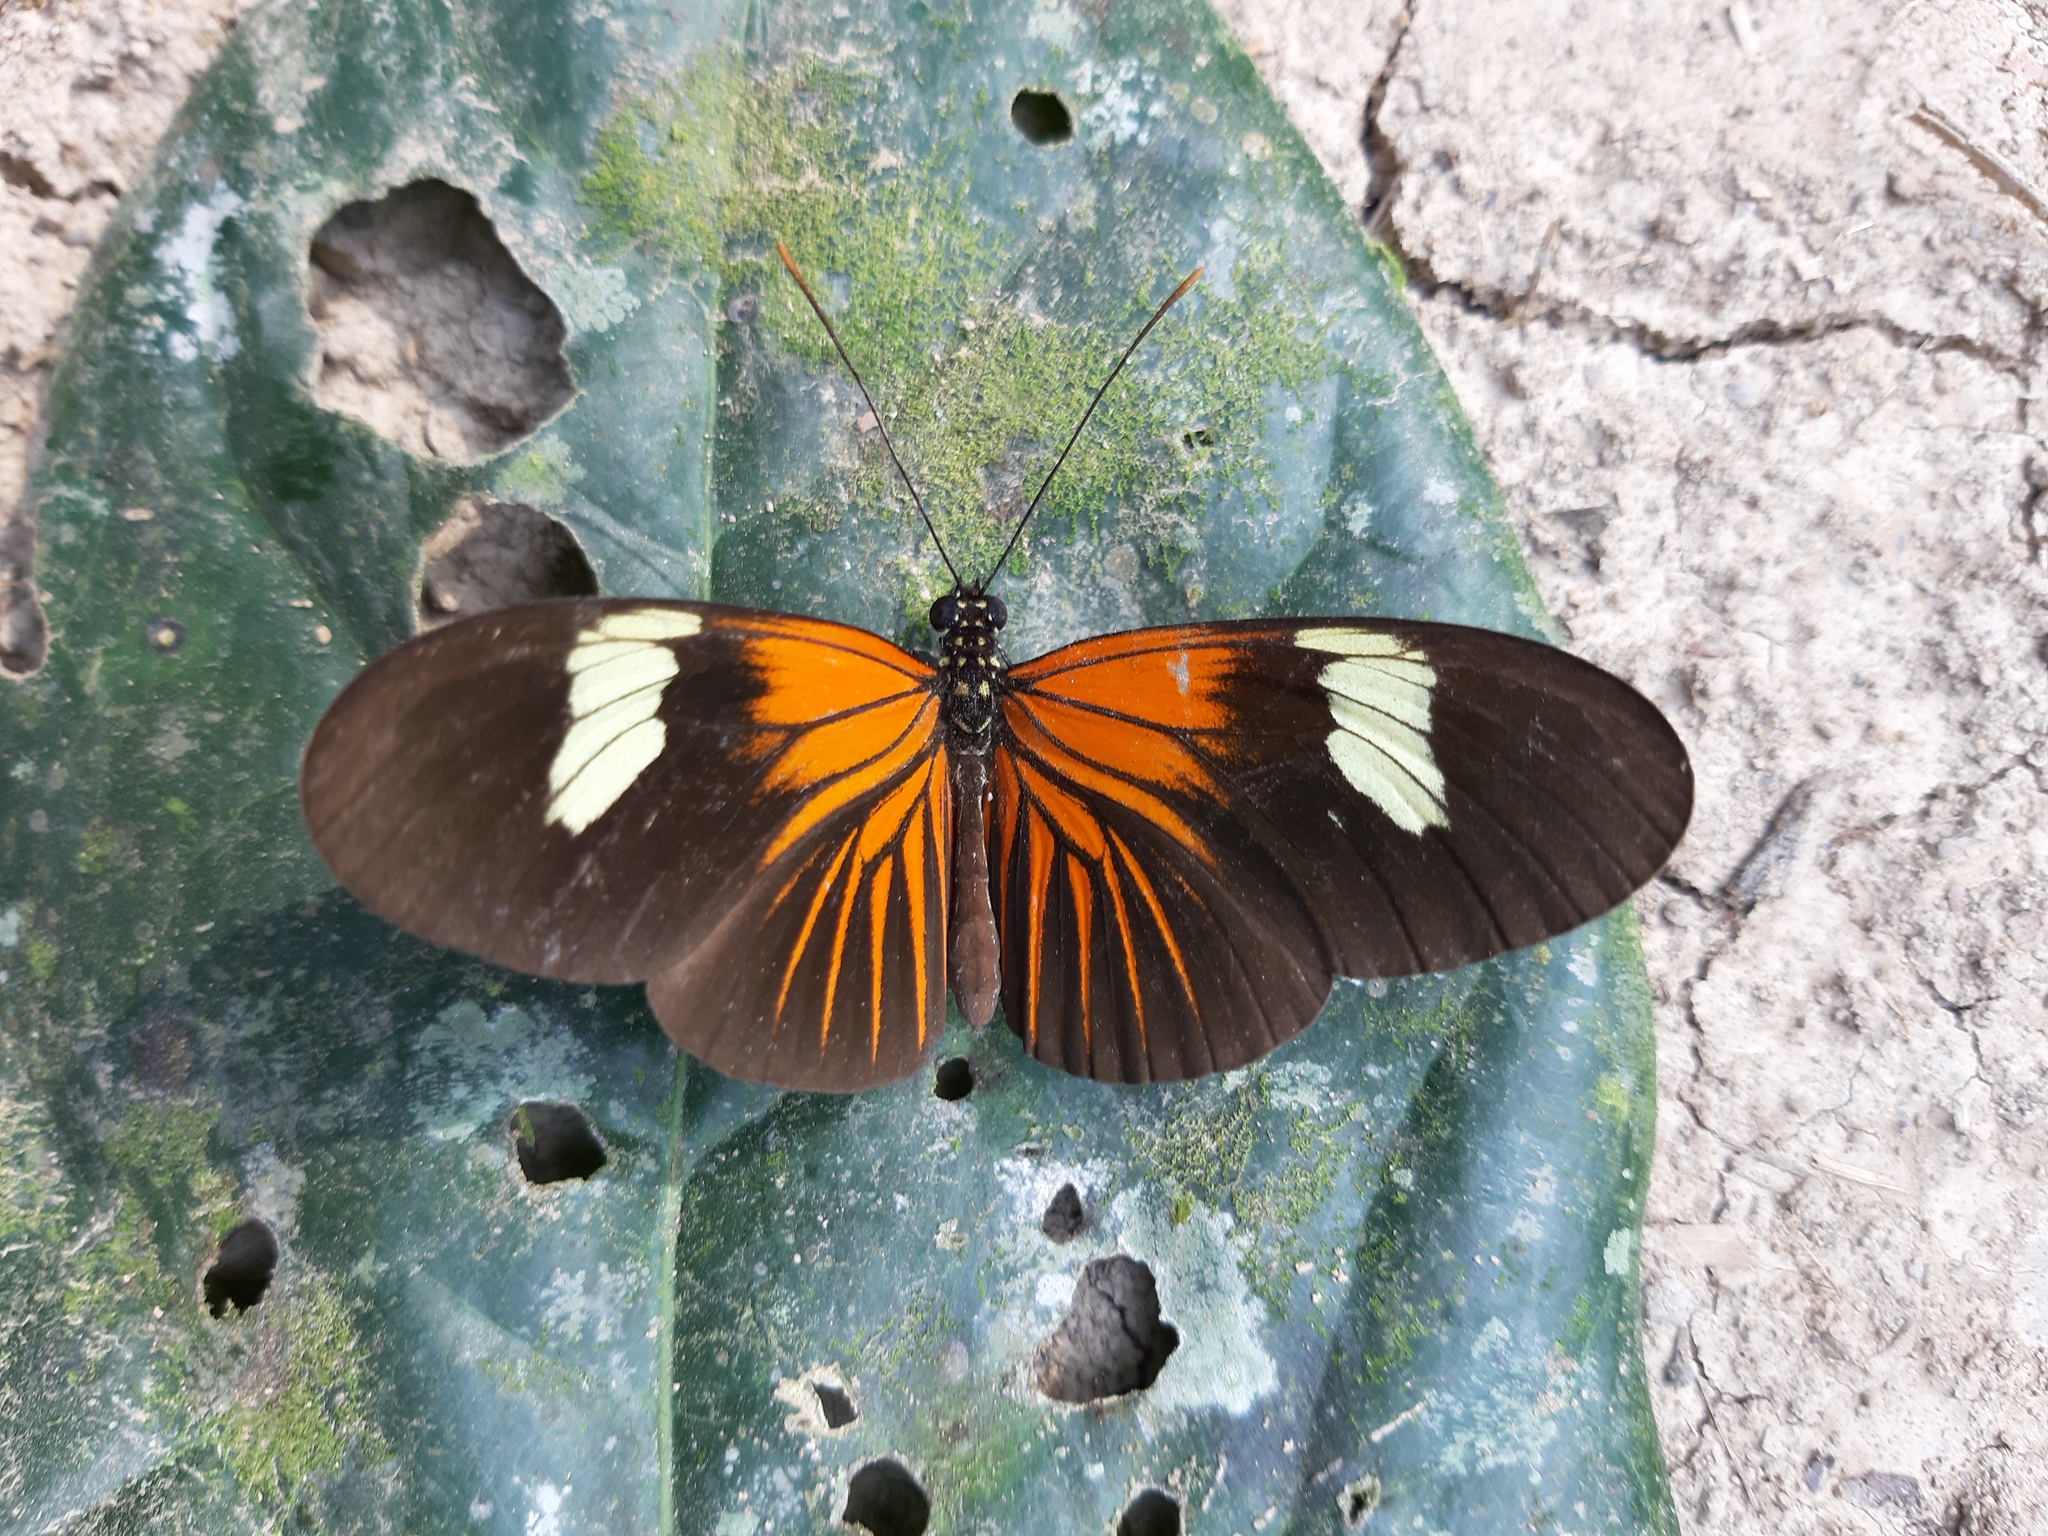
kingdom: Animalia
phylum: Arthropoda
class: Insecta
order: Lepidoptera
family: Nymphalidae
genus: Heliconius
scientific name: Heliconius erato
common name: Common patch longwing
